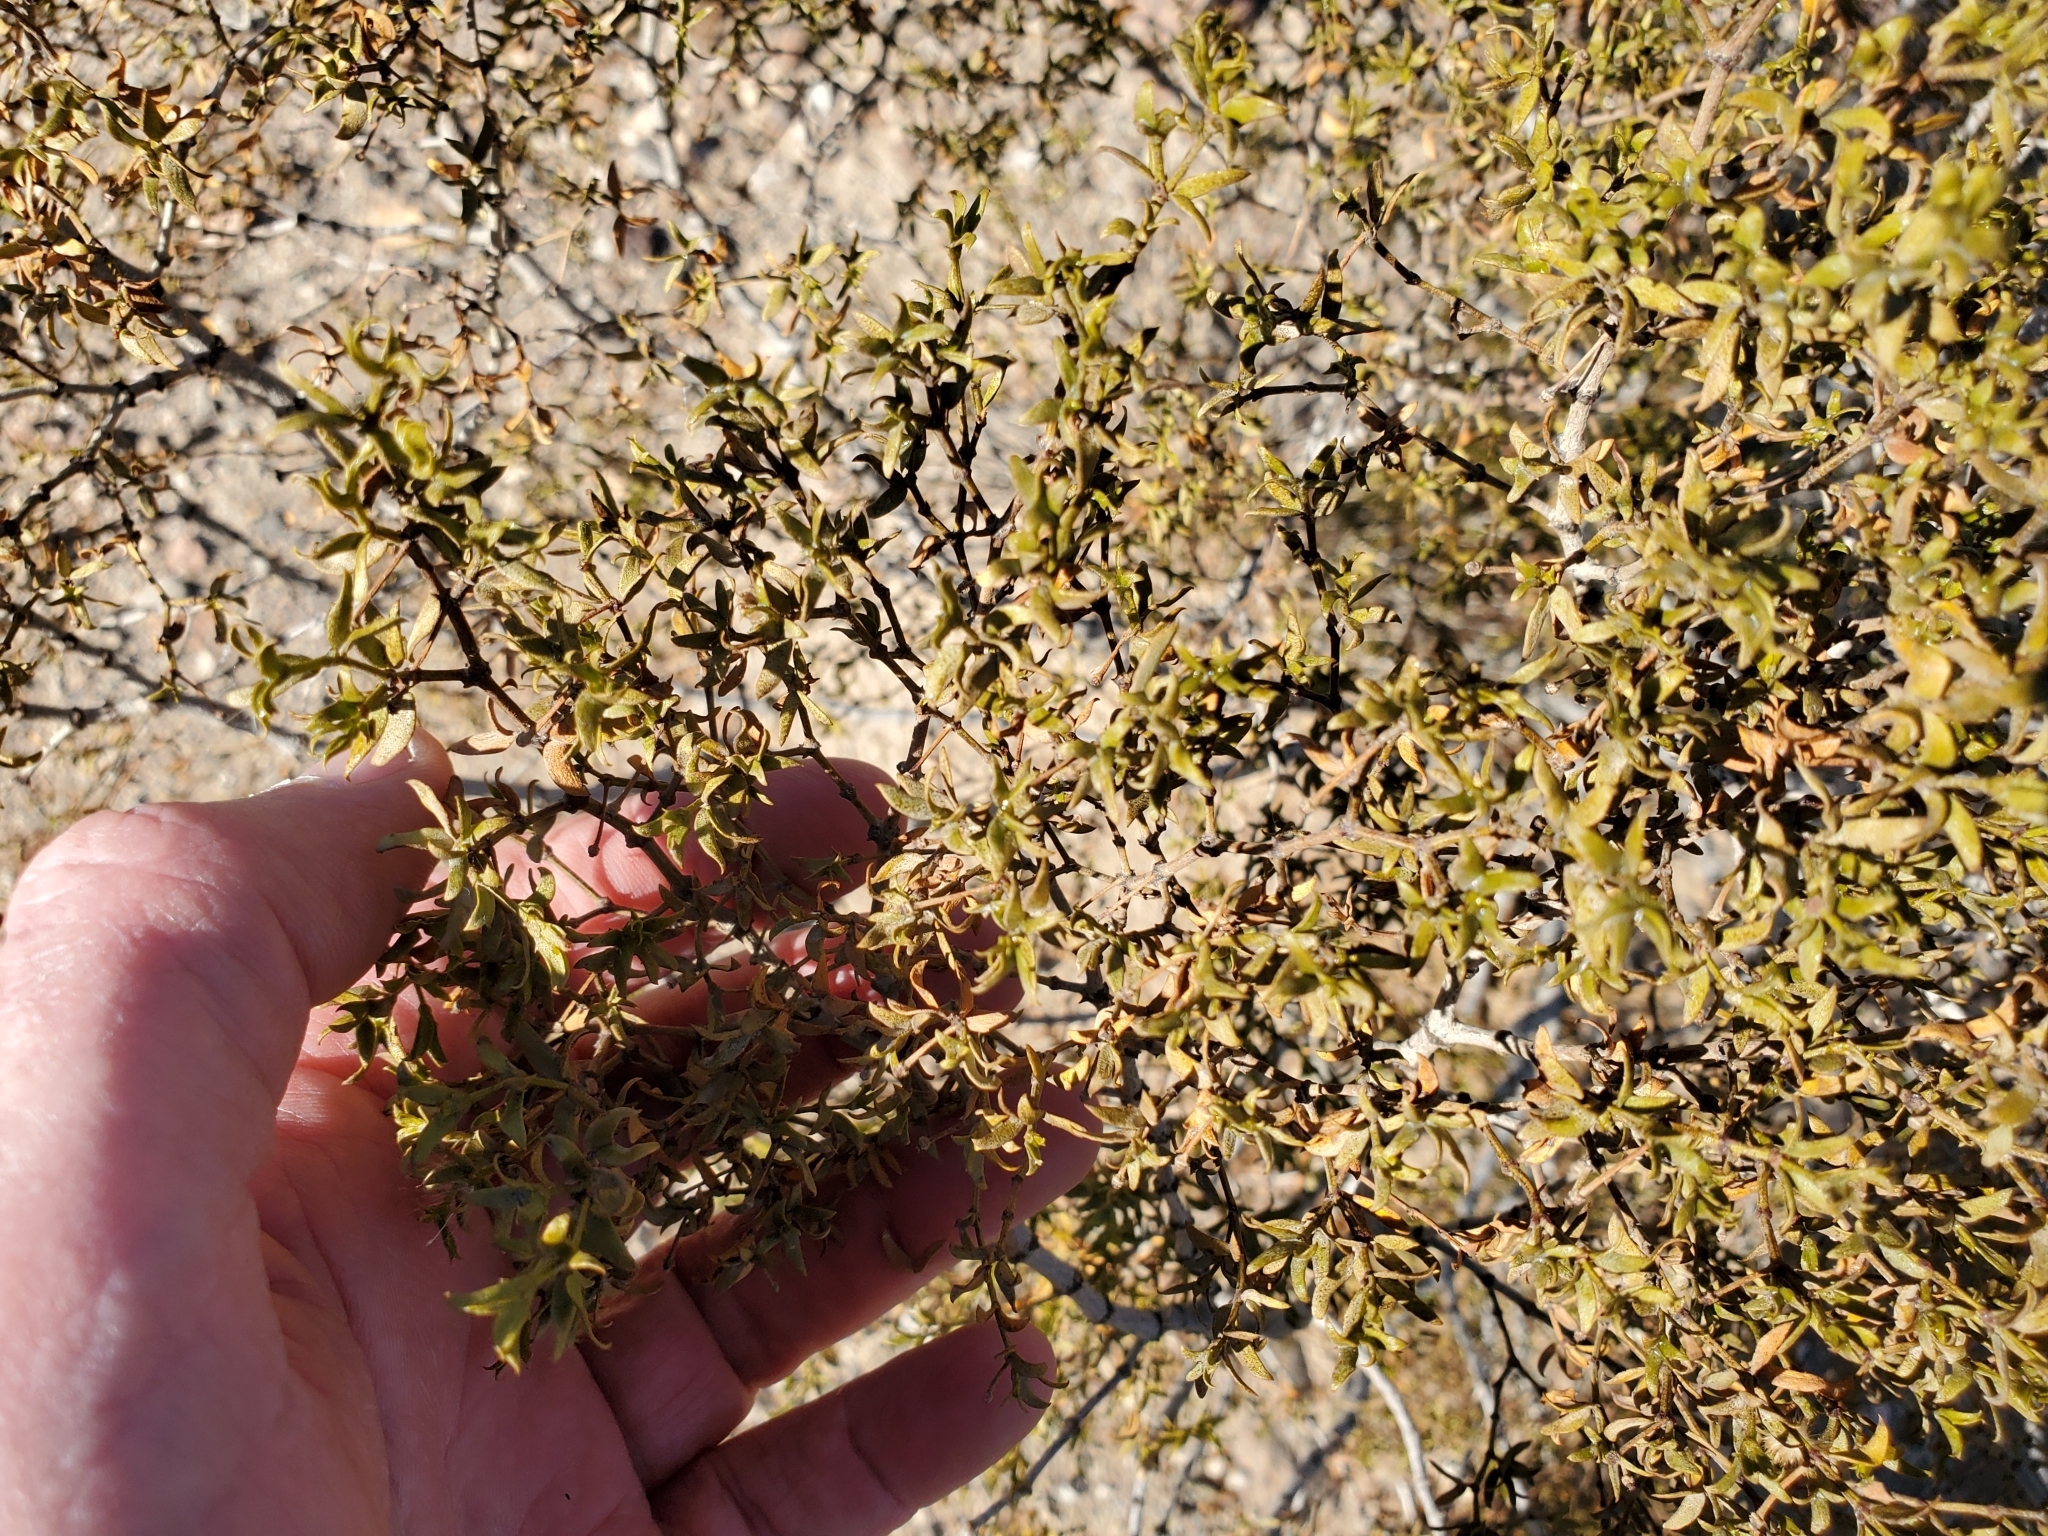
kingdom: Plantae
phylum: Tracheophyta
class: Magnoliopsida
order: Zygophyllales
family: Zygophyllaceae
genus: Larrea
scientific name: Larrea tridentata
